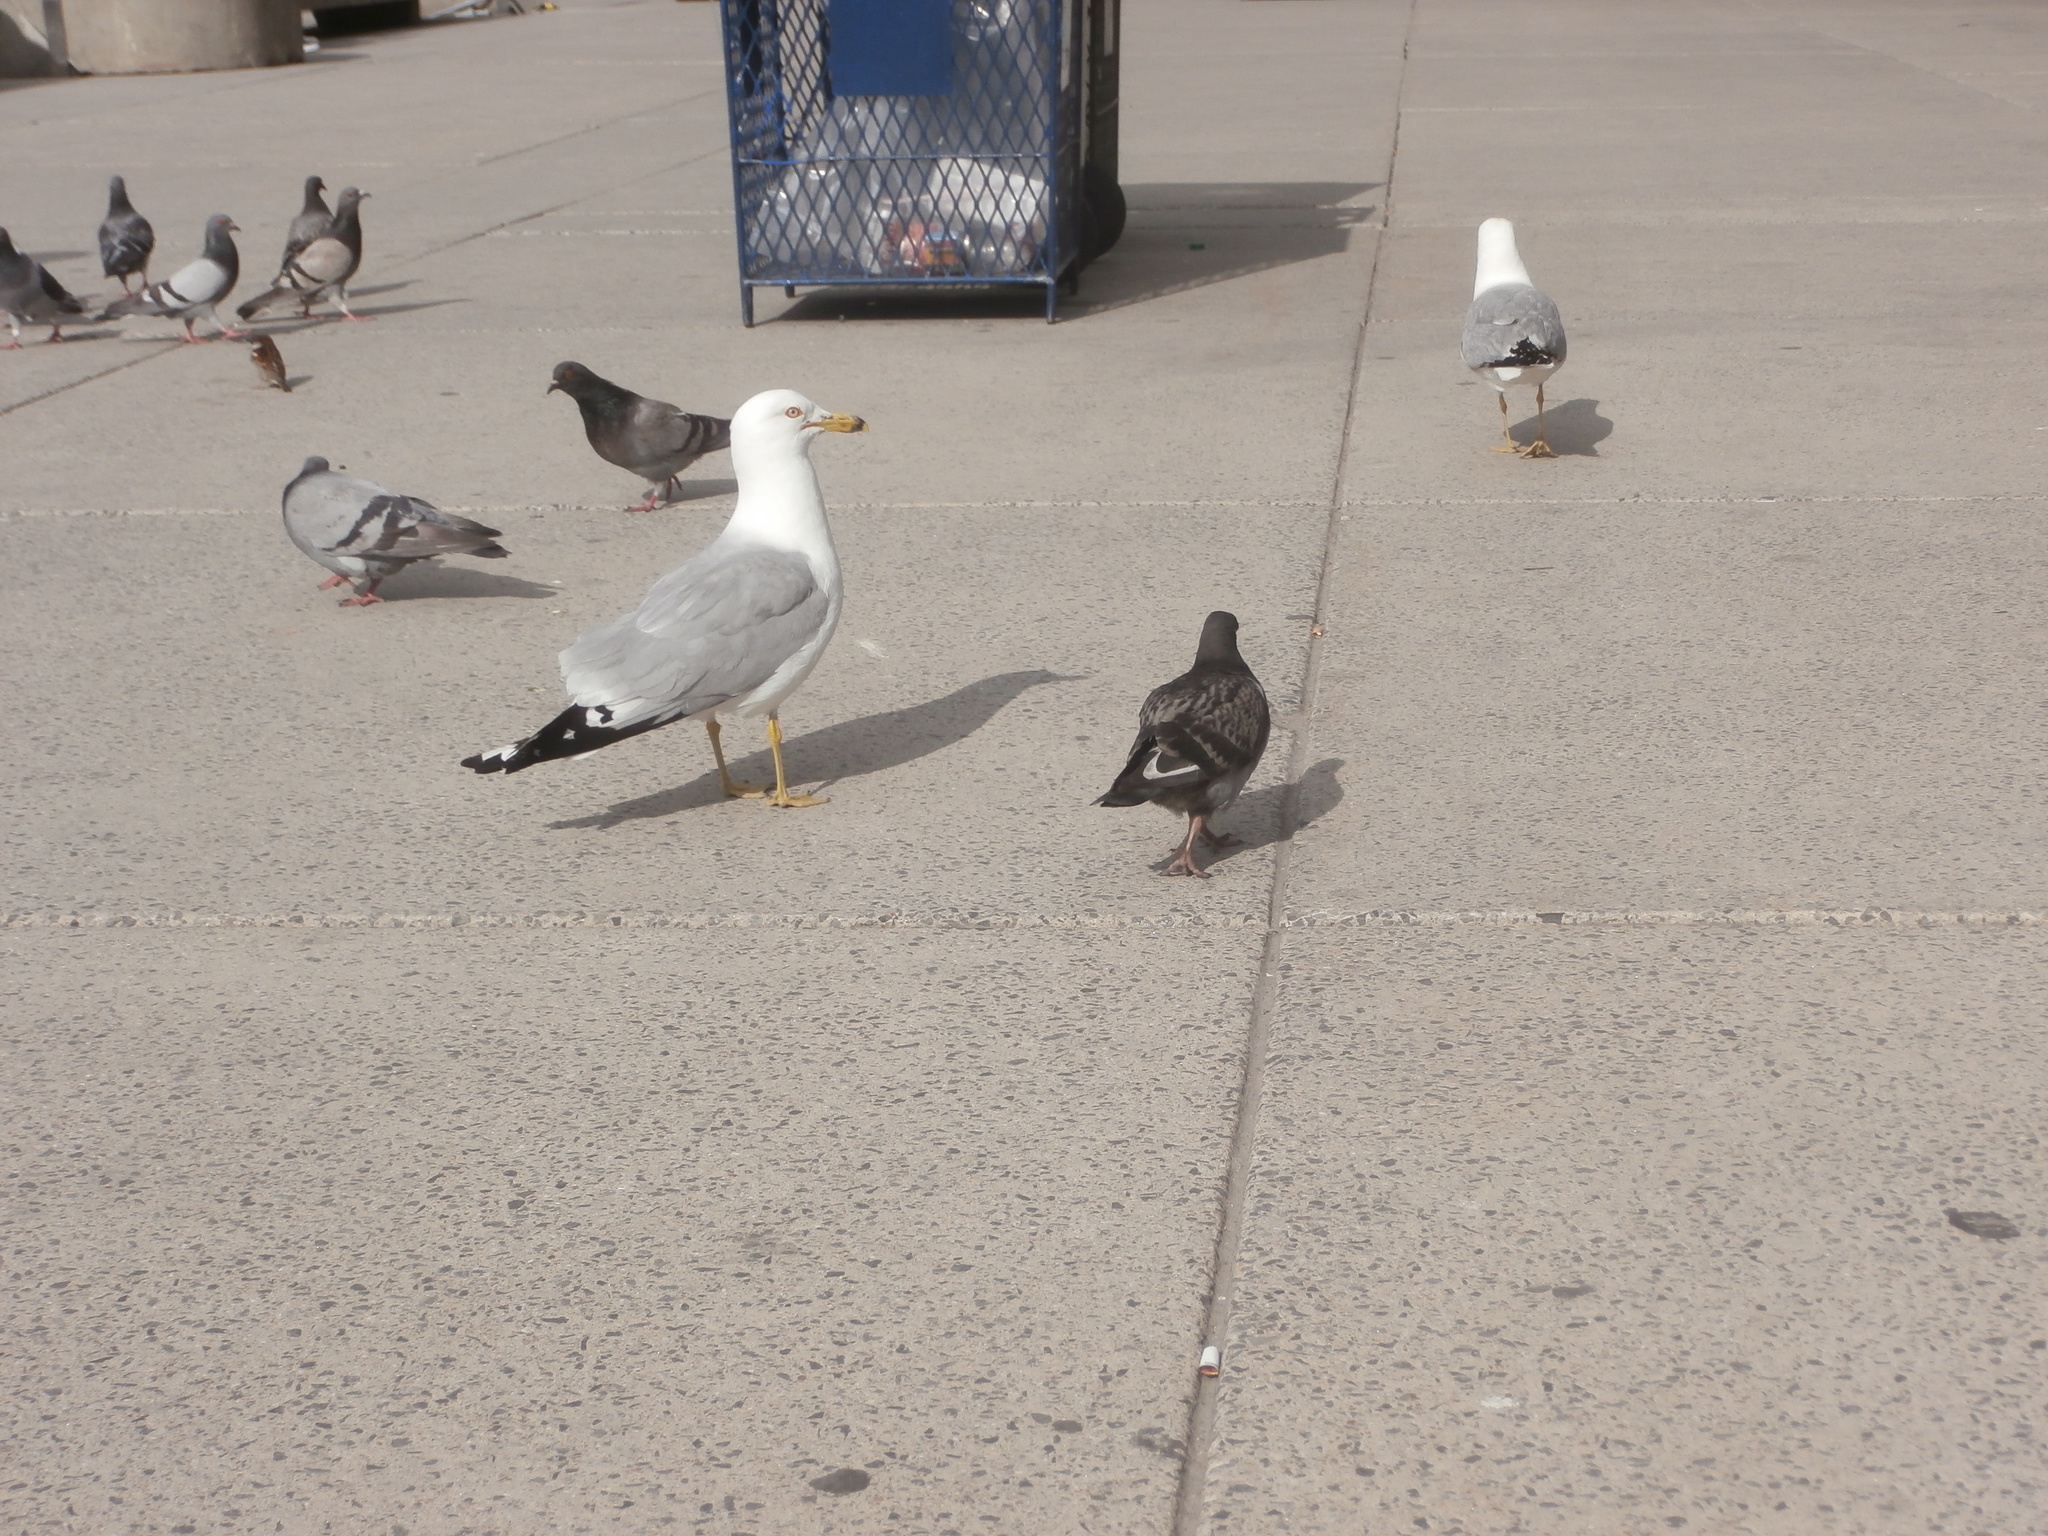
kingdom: Animalia
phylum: Chordata
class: Aves
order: Passeriformes
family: Passeridae
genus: Passer
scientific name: Passer domesticus
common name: House sparrow
